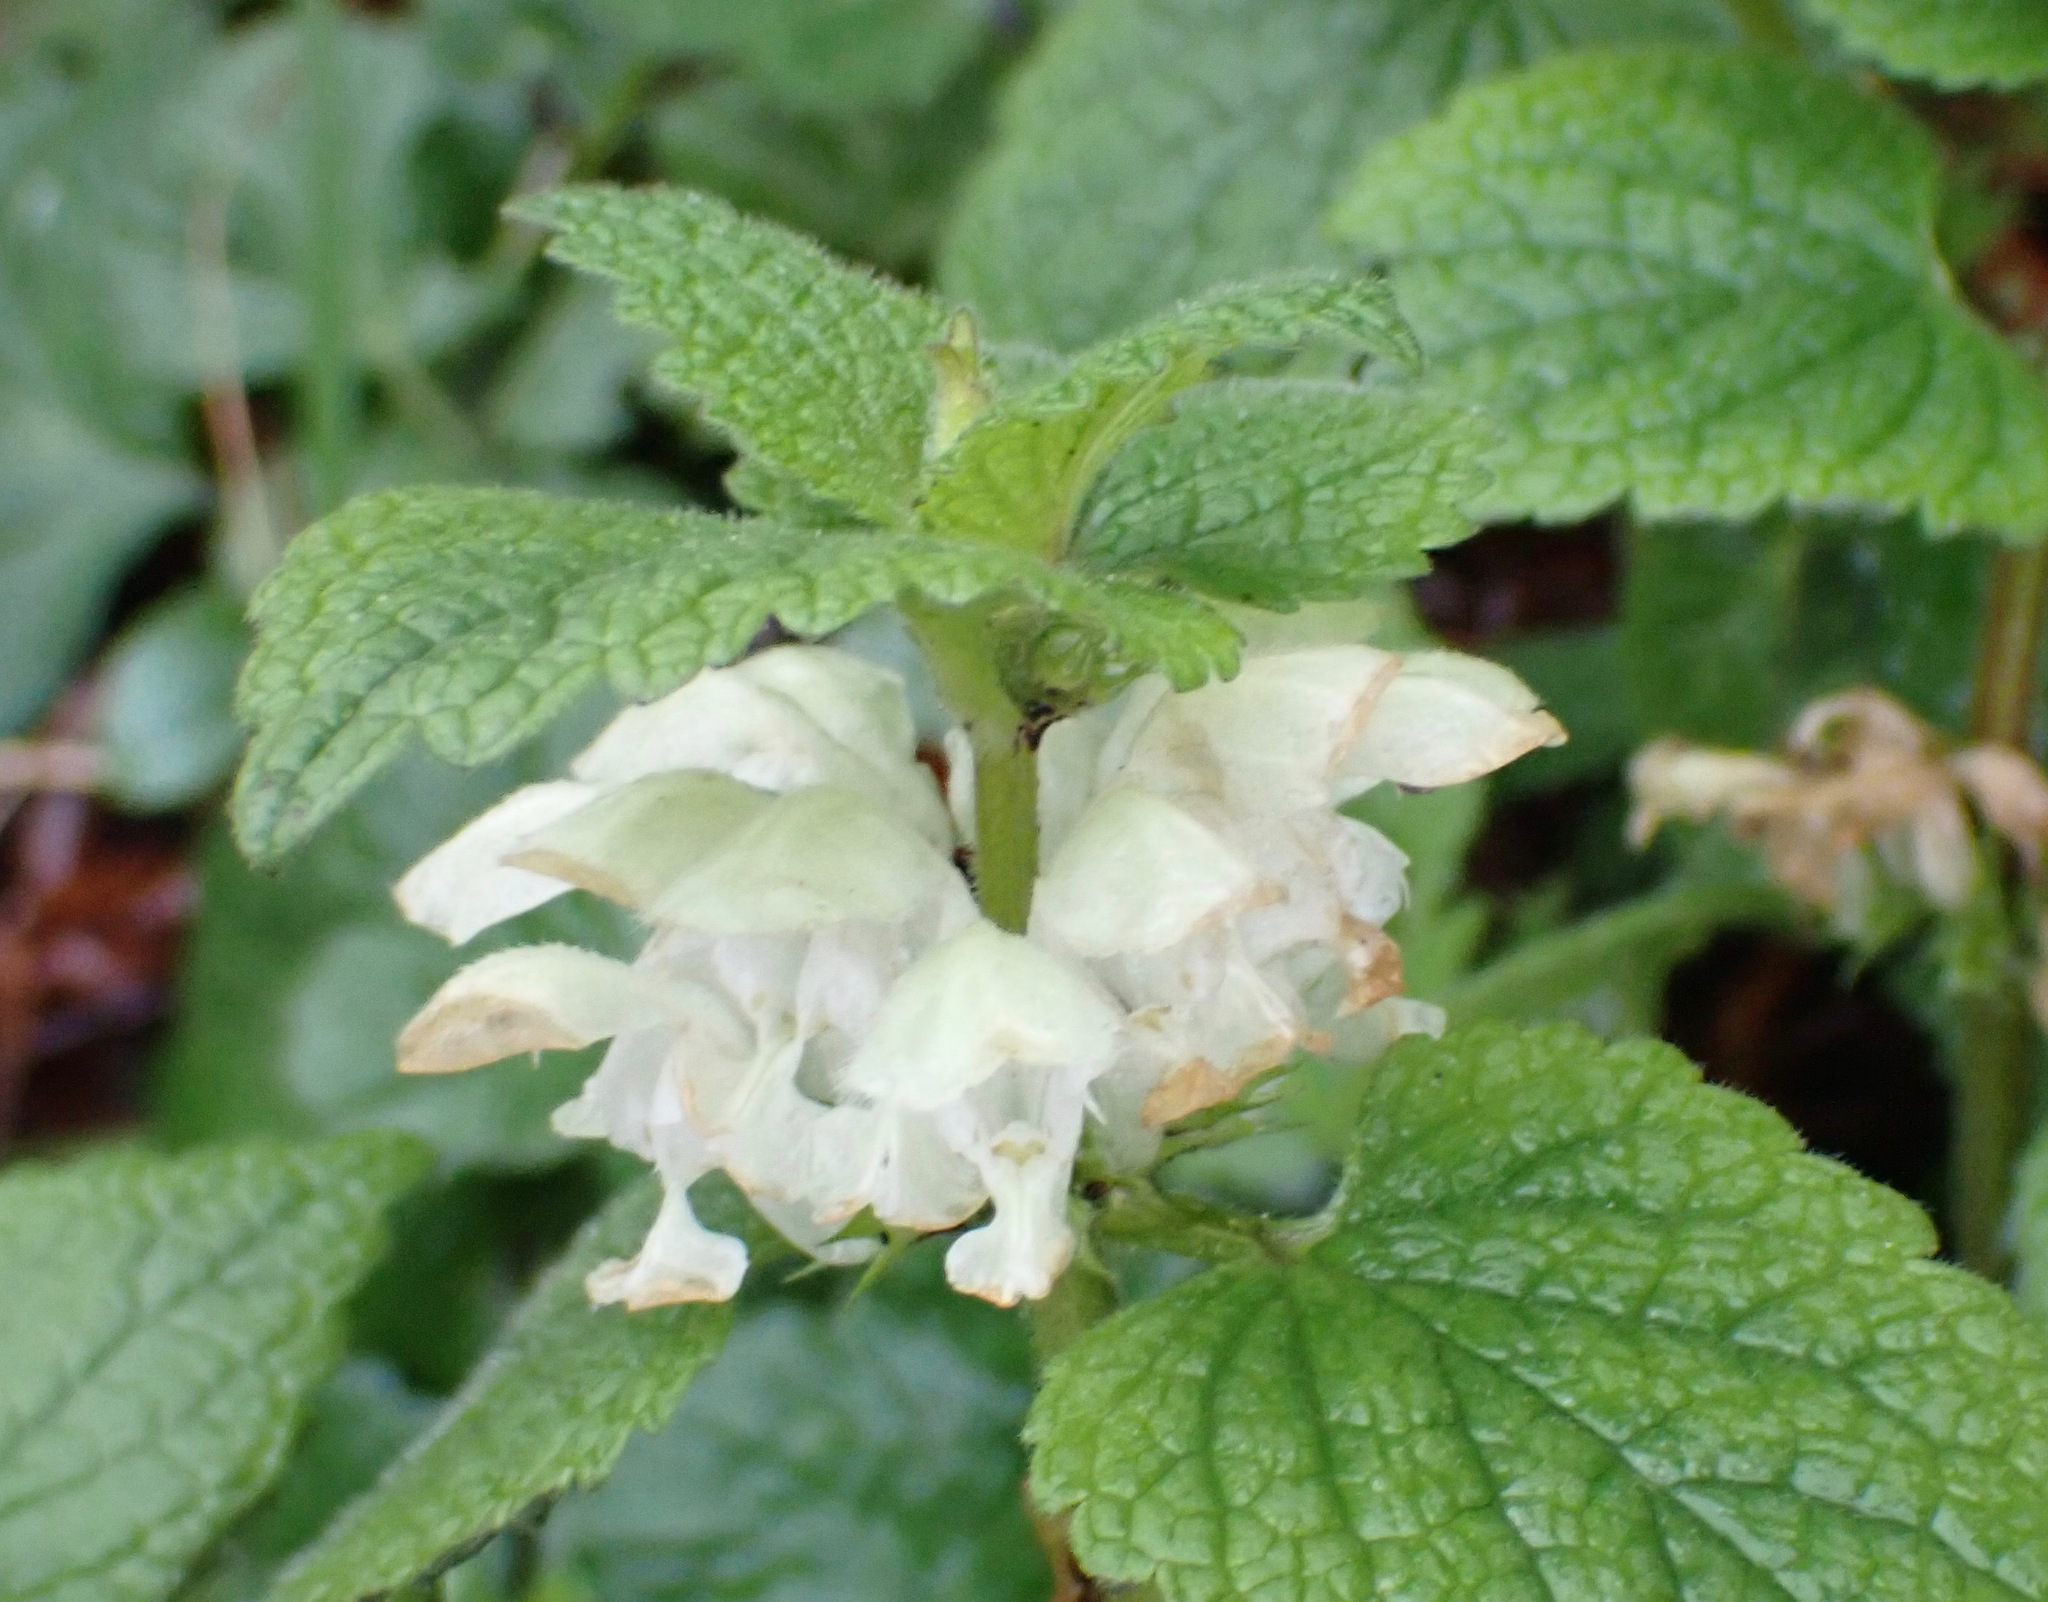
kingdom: Plantae
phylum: Tracheophyta
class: Magnoliopsida
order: Lamiales
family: Lamiaceae
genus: Lamium
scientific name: Lamium album
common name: White dead-nettle
